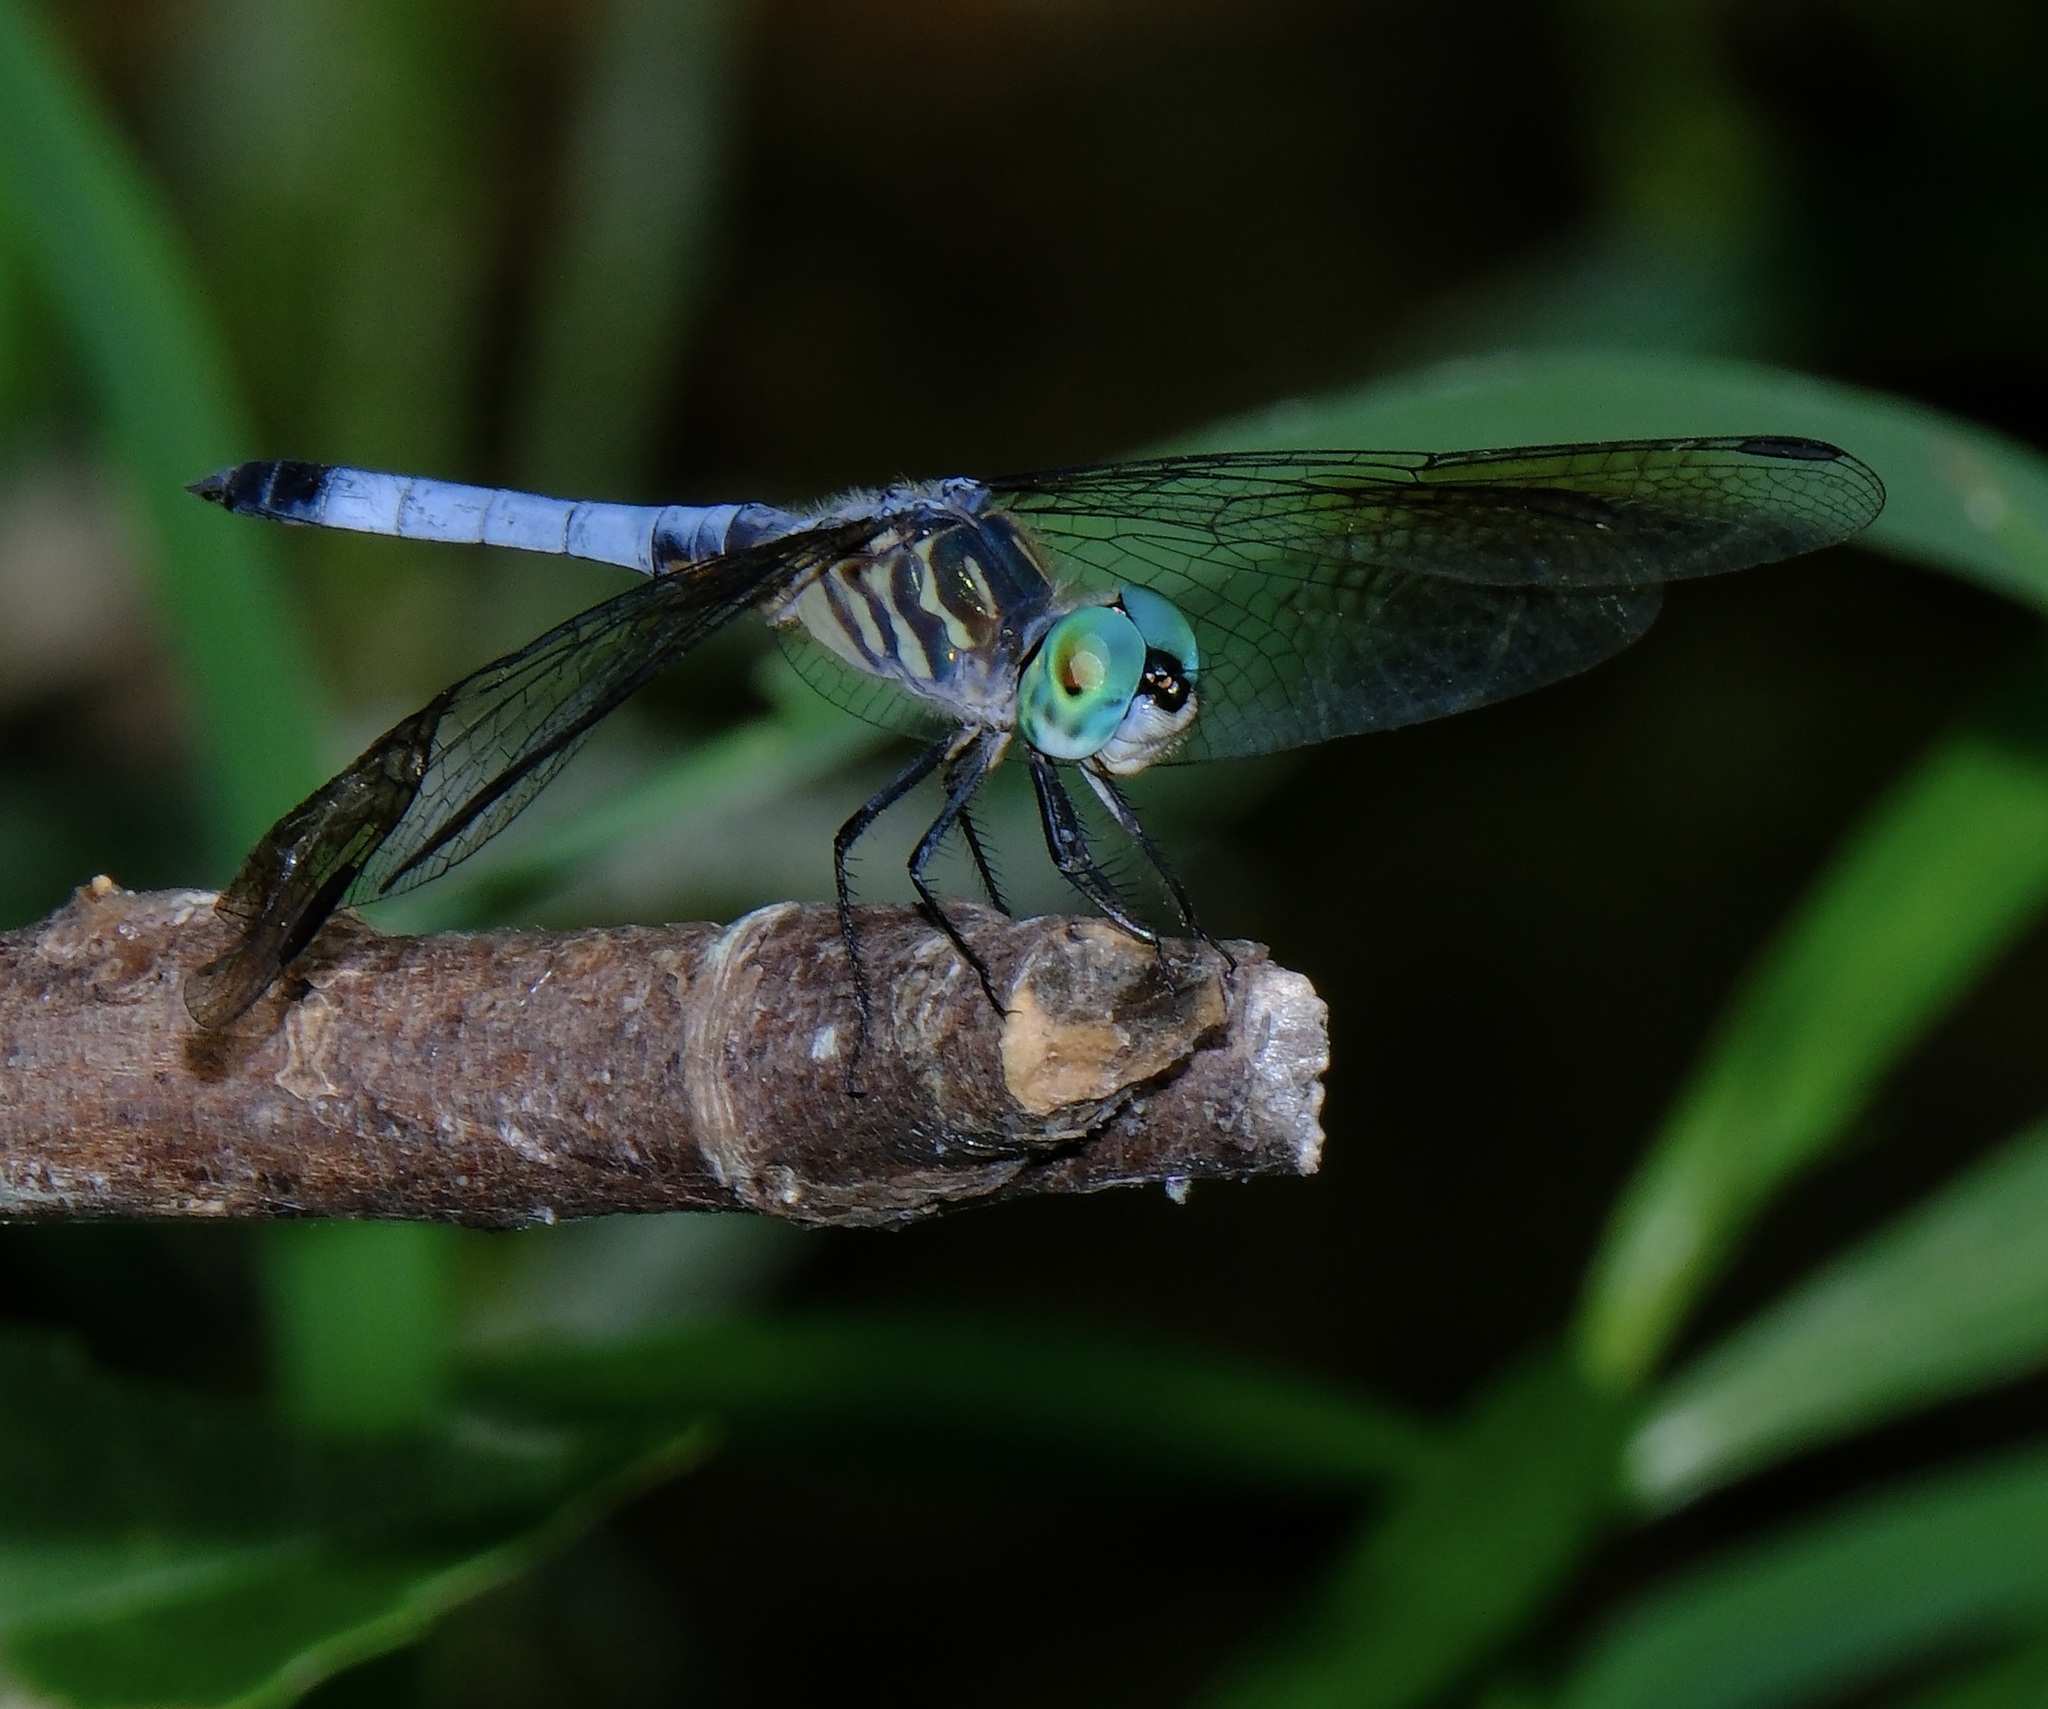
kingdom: Animalia
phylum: Arthropoda
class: Insecta
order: Odonata
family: Libellulidae
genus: Pachydiplax
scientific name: Pachydiplax longipennis
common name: Blue dasher
